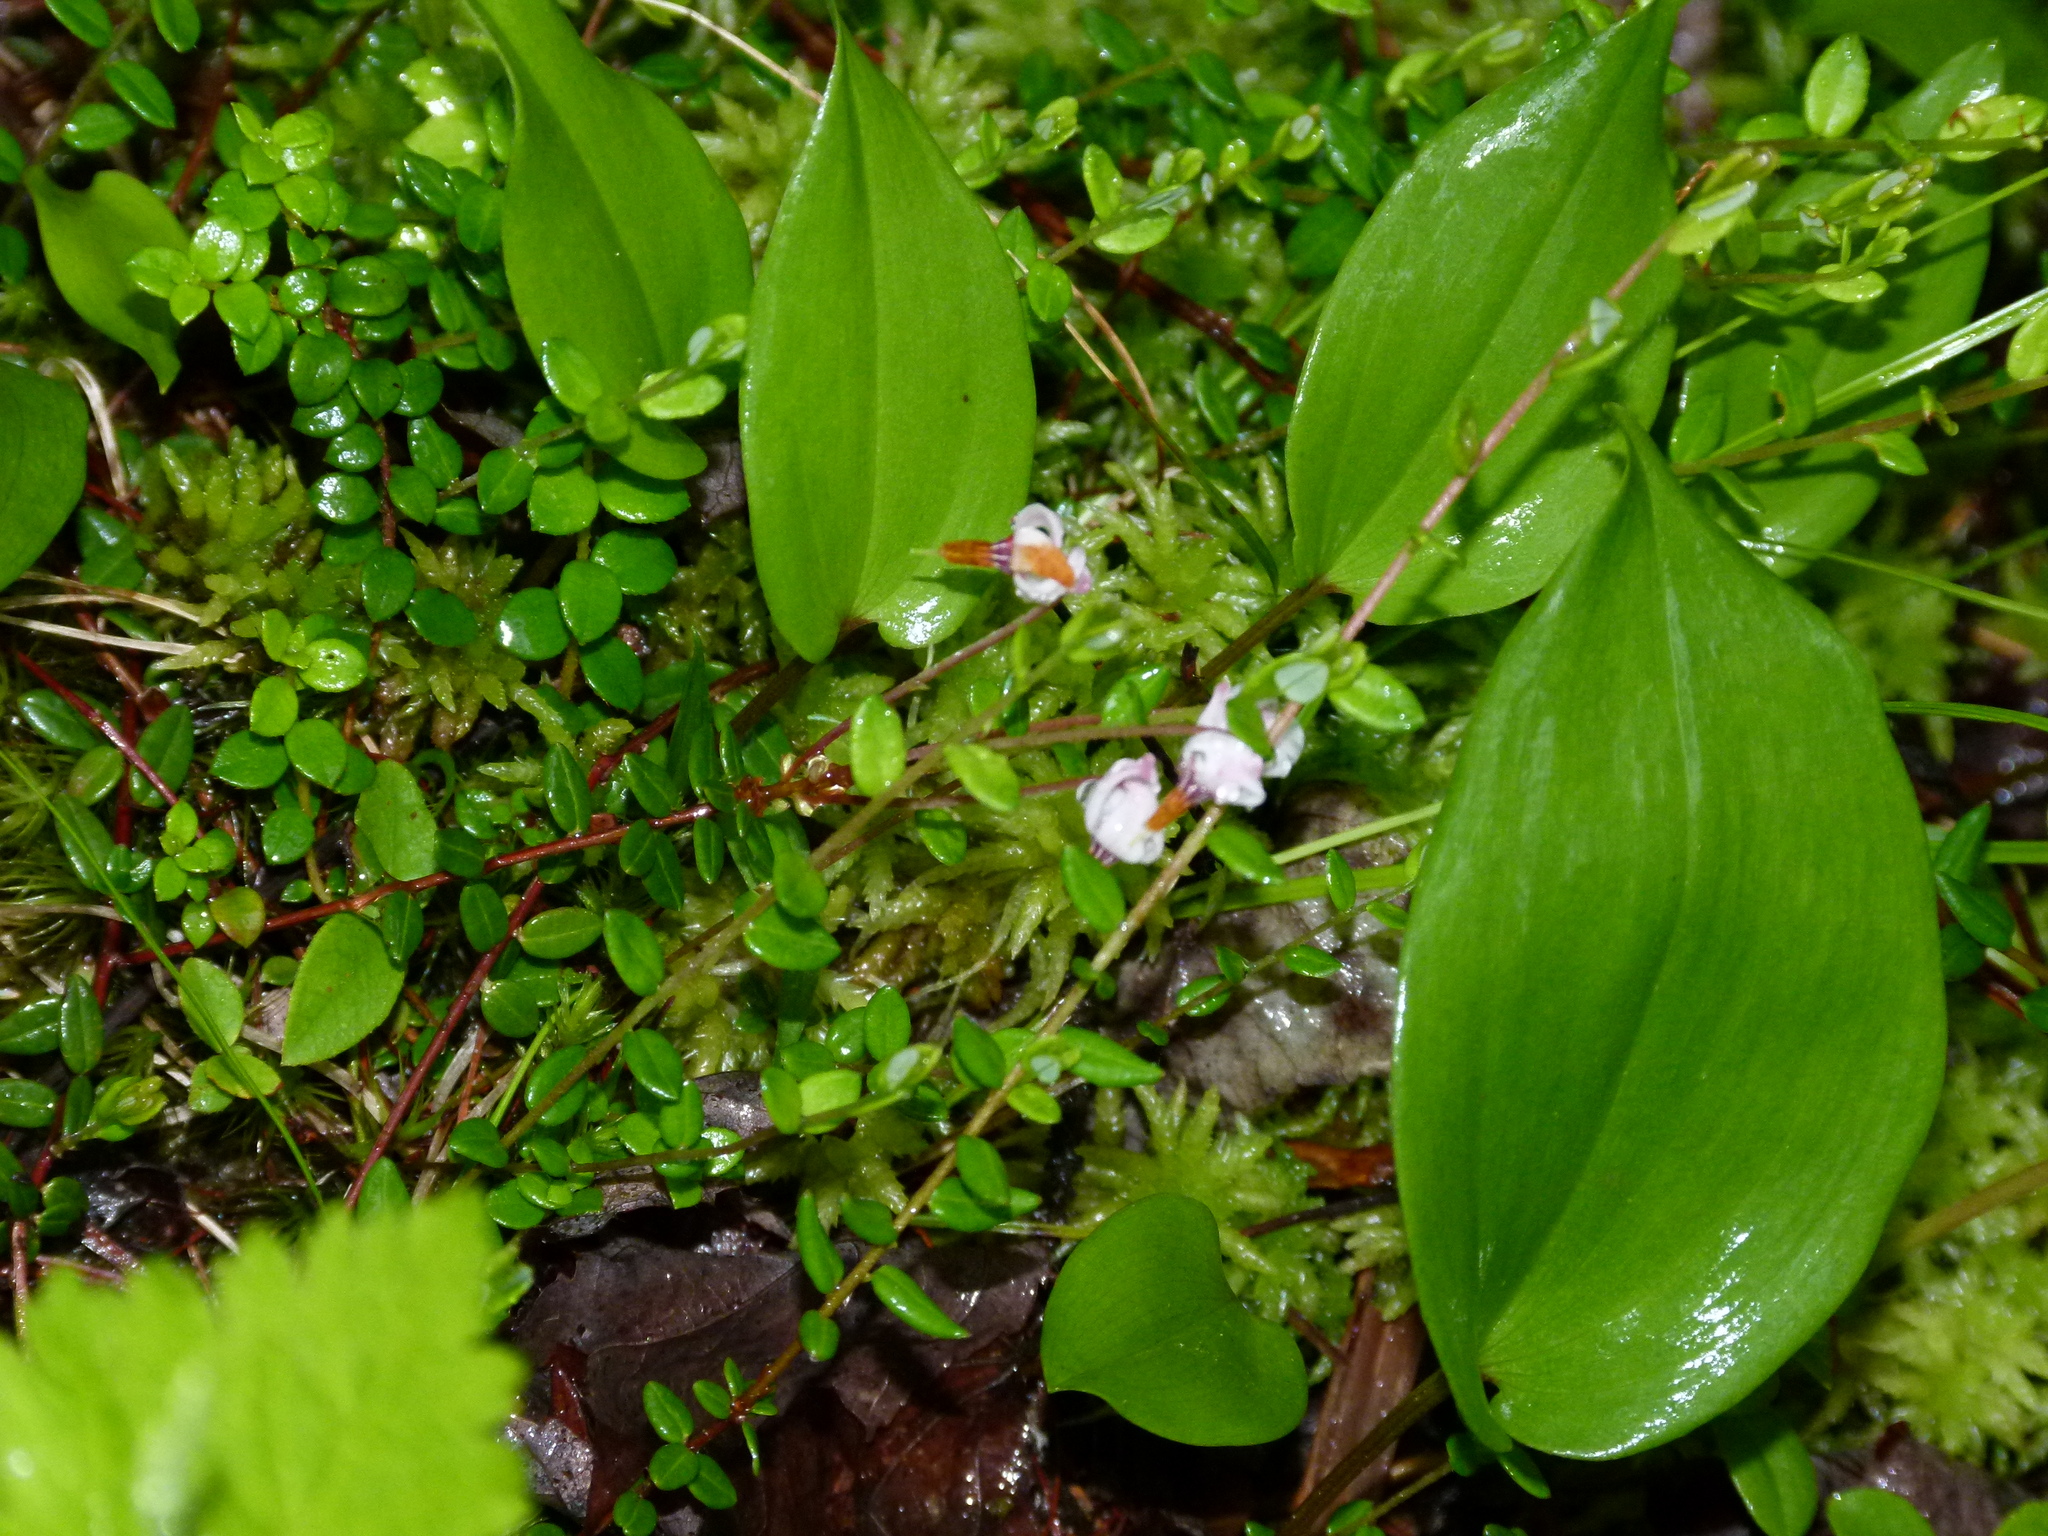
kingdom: Plantae
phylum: Tracheophyta
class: Magnoliopsida
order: Ericales
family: Ericaceae
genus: Vaccinium
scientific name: Vaccinium oxycoccos
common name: Cranberry
